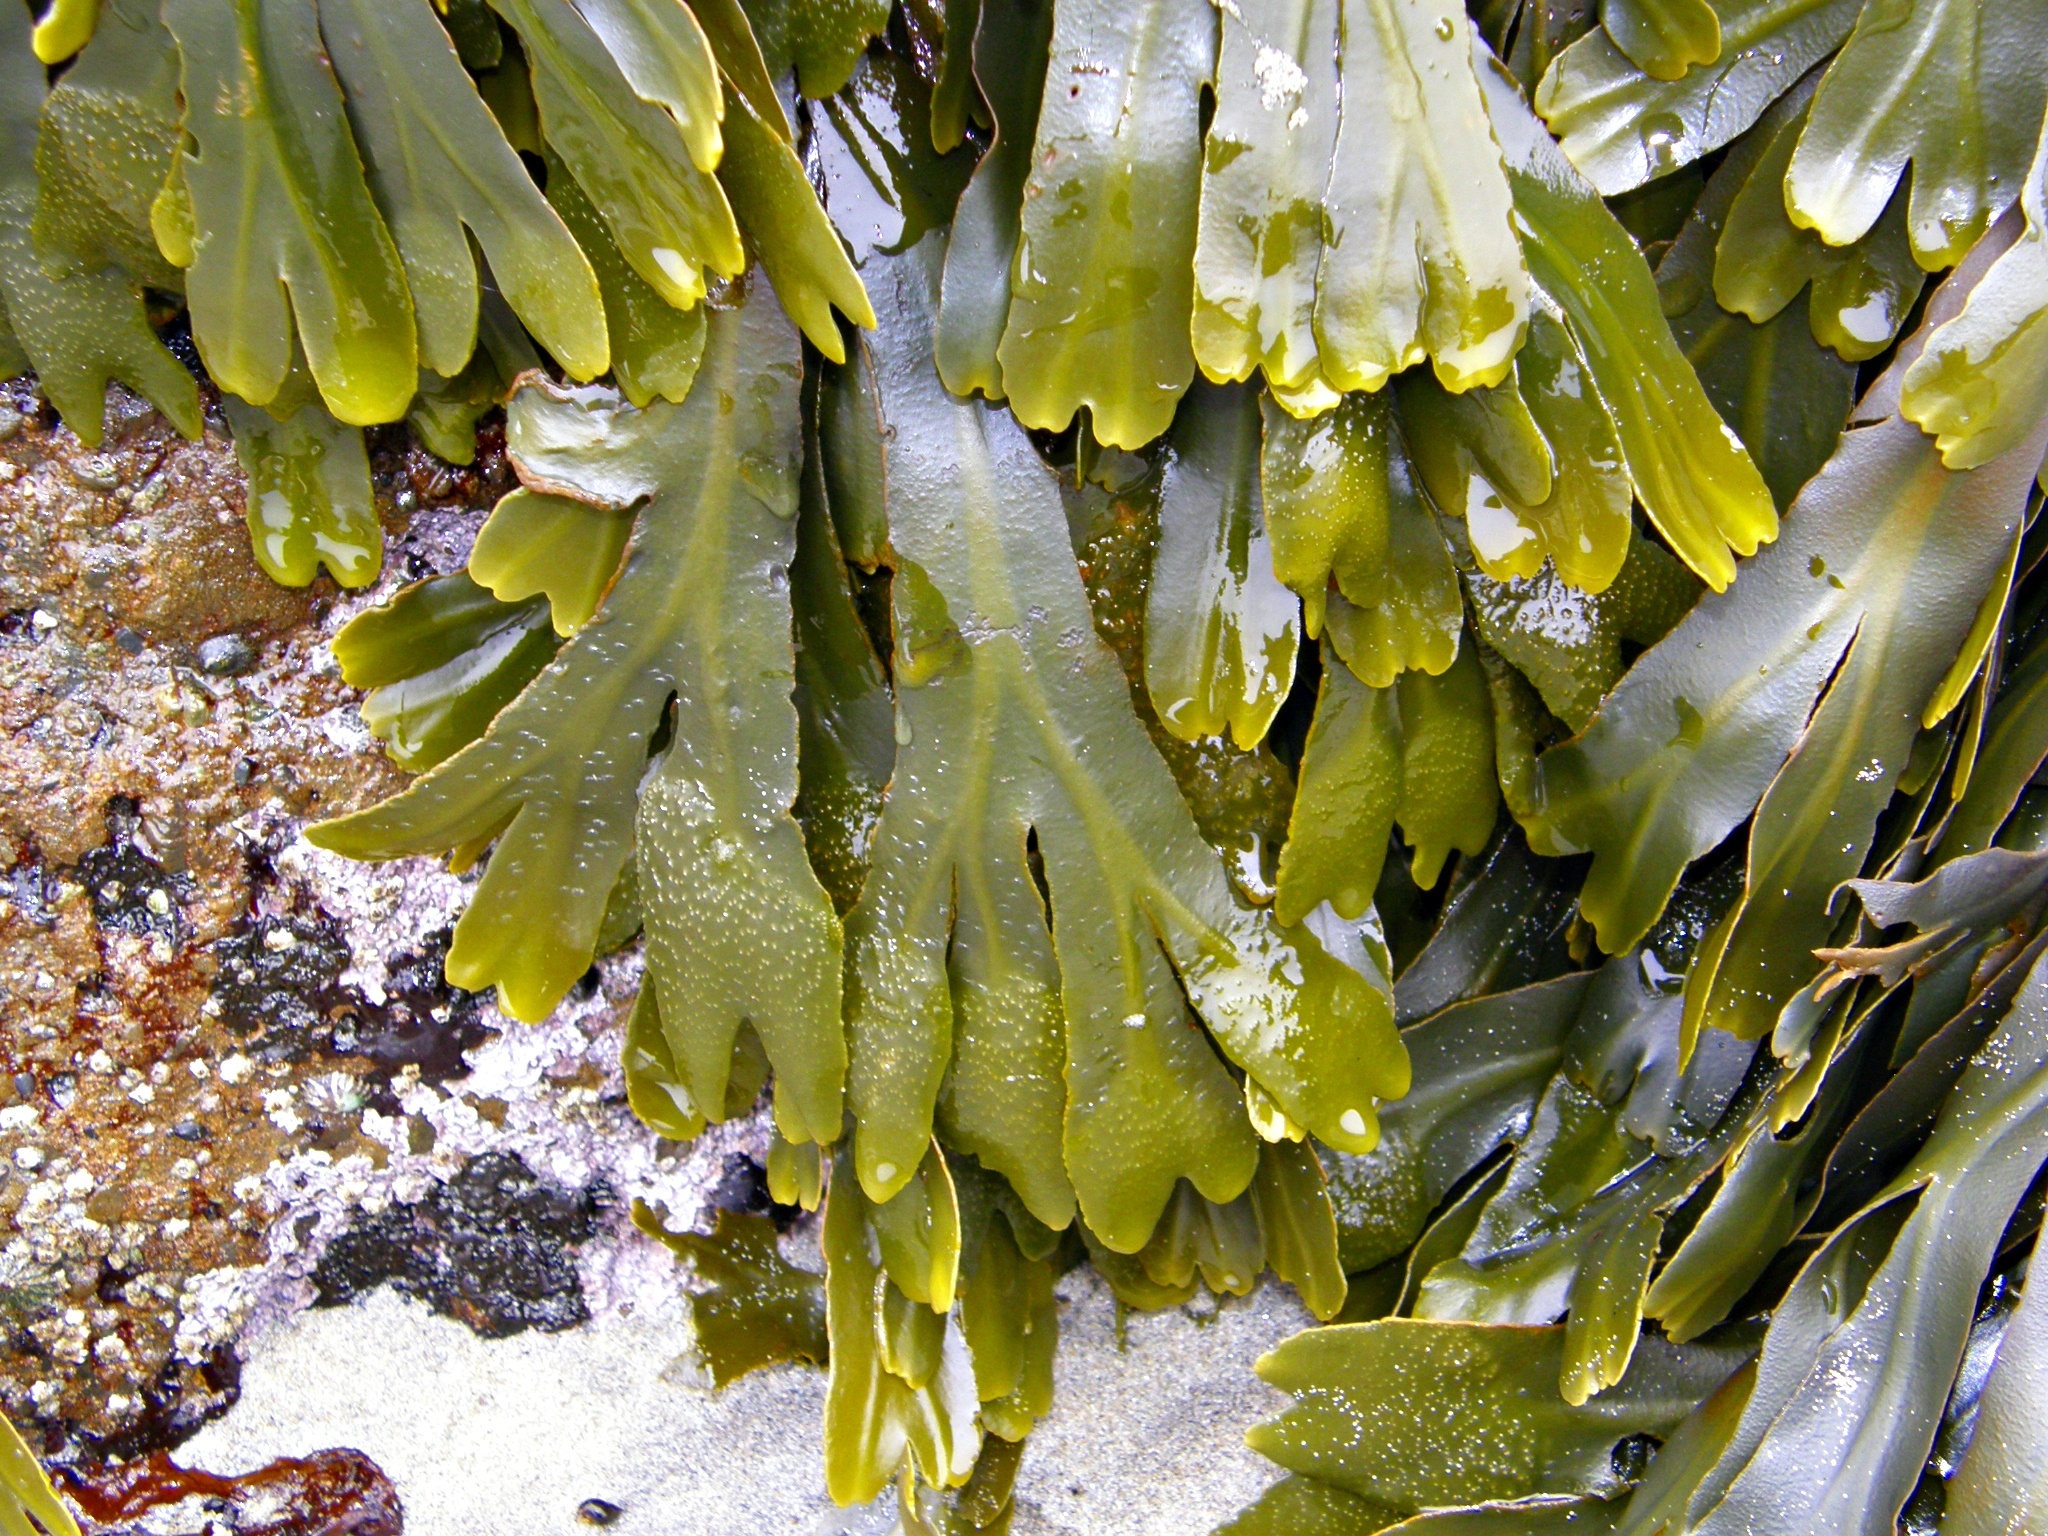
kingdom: Chromista
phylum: Ochrophyta
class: Phaeophyceae
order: Fucales
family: Fucaceae
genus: Fucus
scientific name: Fucus distichus
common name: Rockweed
